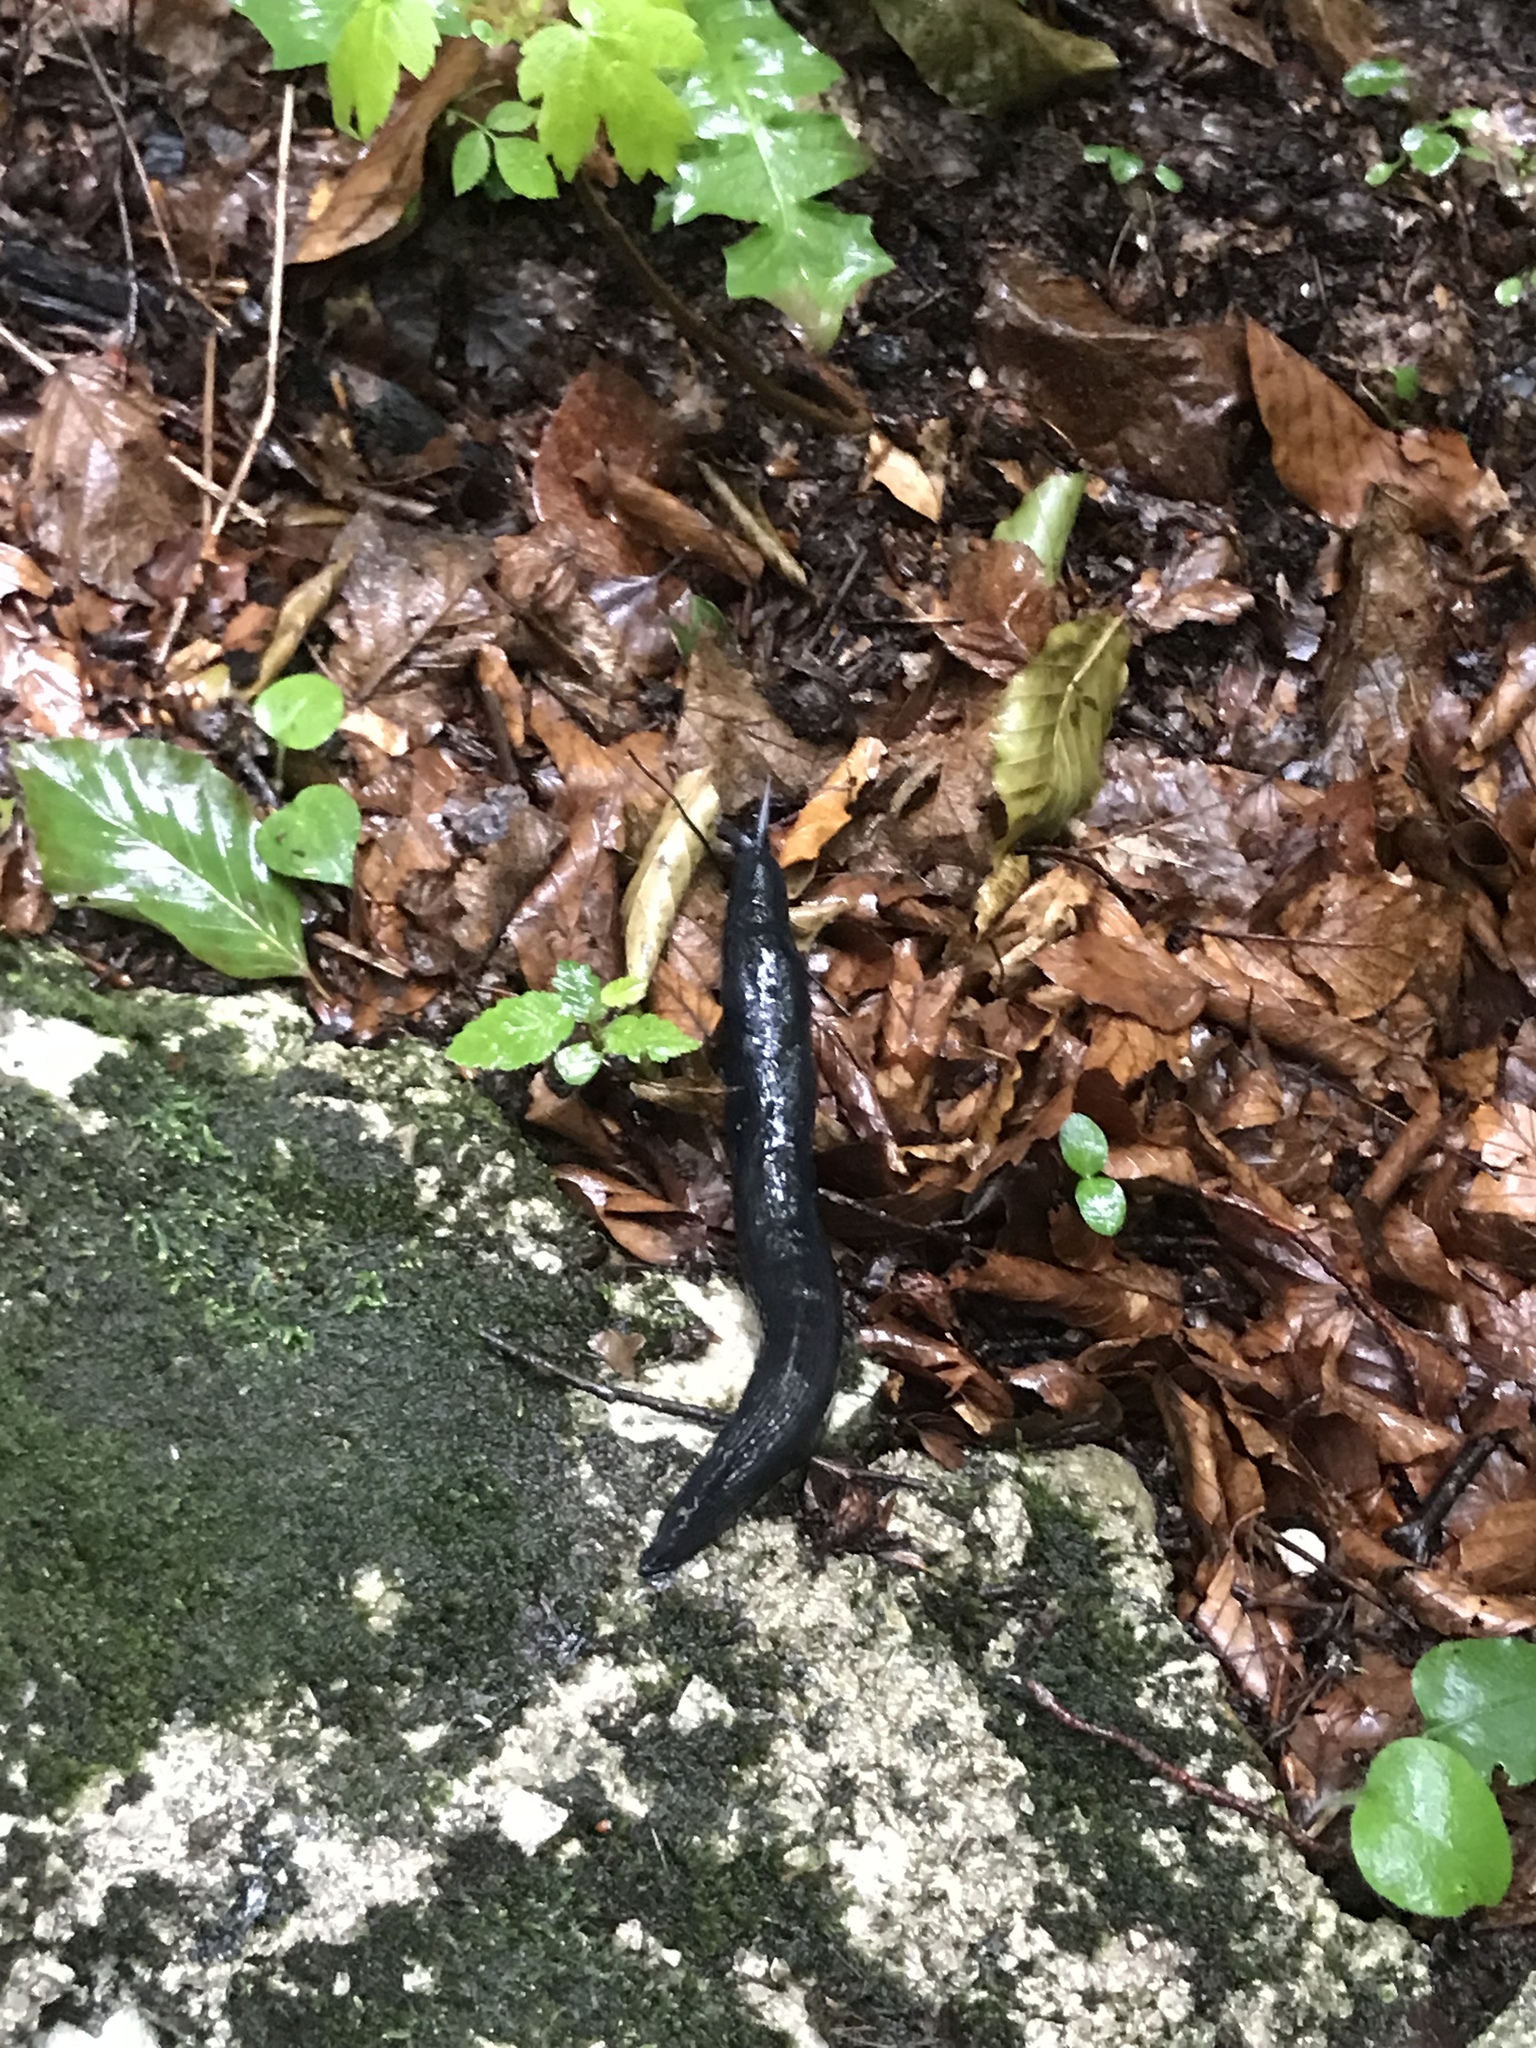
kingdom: Animalia
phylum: Mollusca
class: Gastropoda
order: Stylommatophora
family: Limacidae
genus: Limax
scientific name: Limax cinereoniger
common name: Ash-black slug
